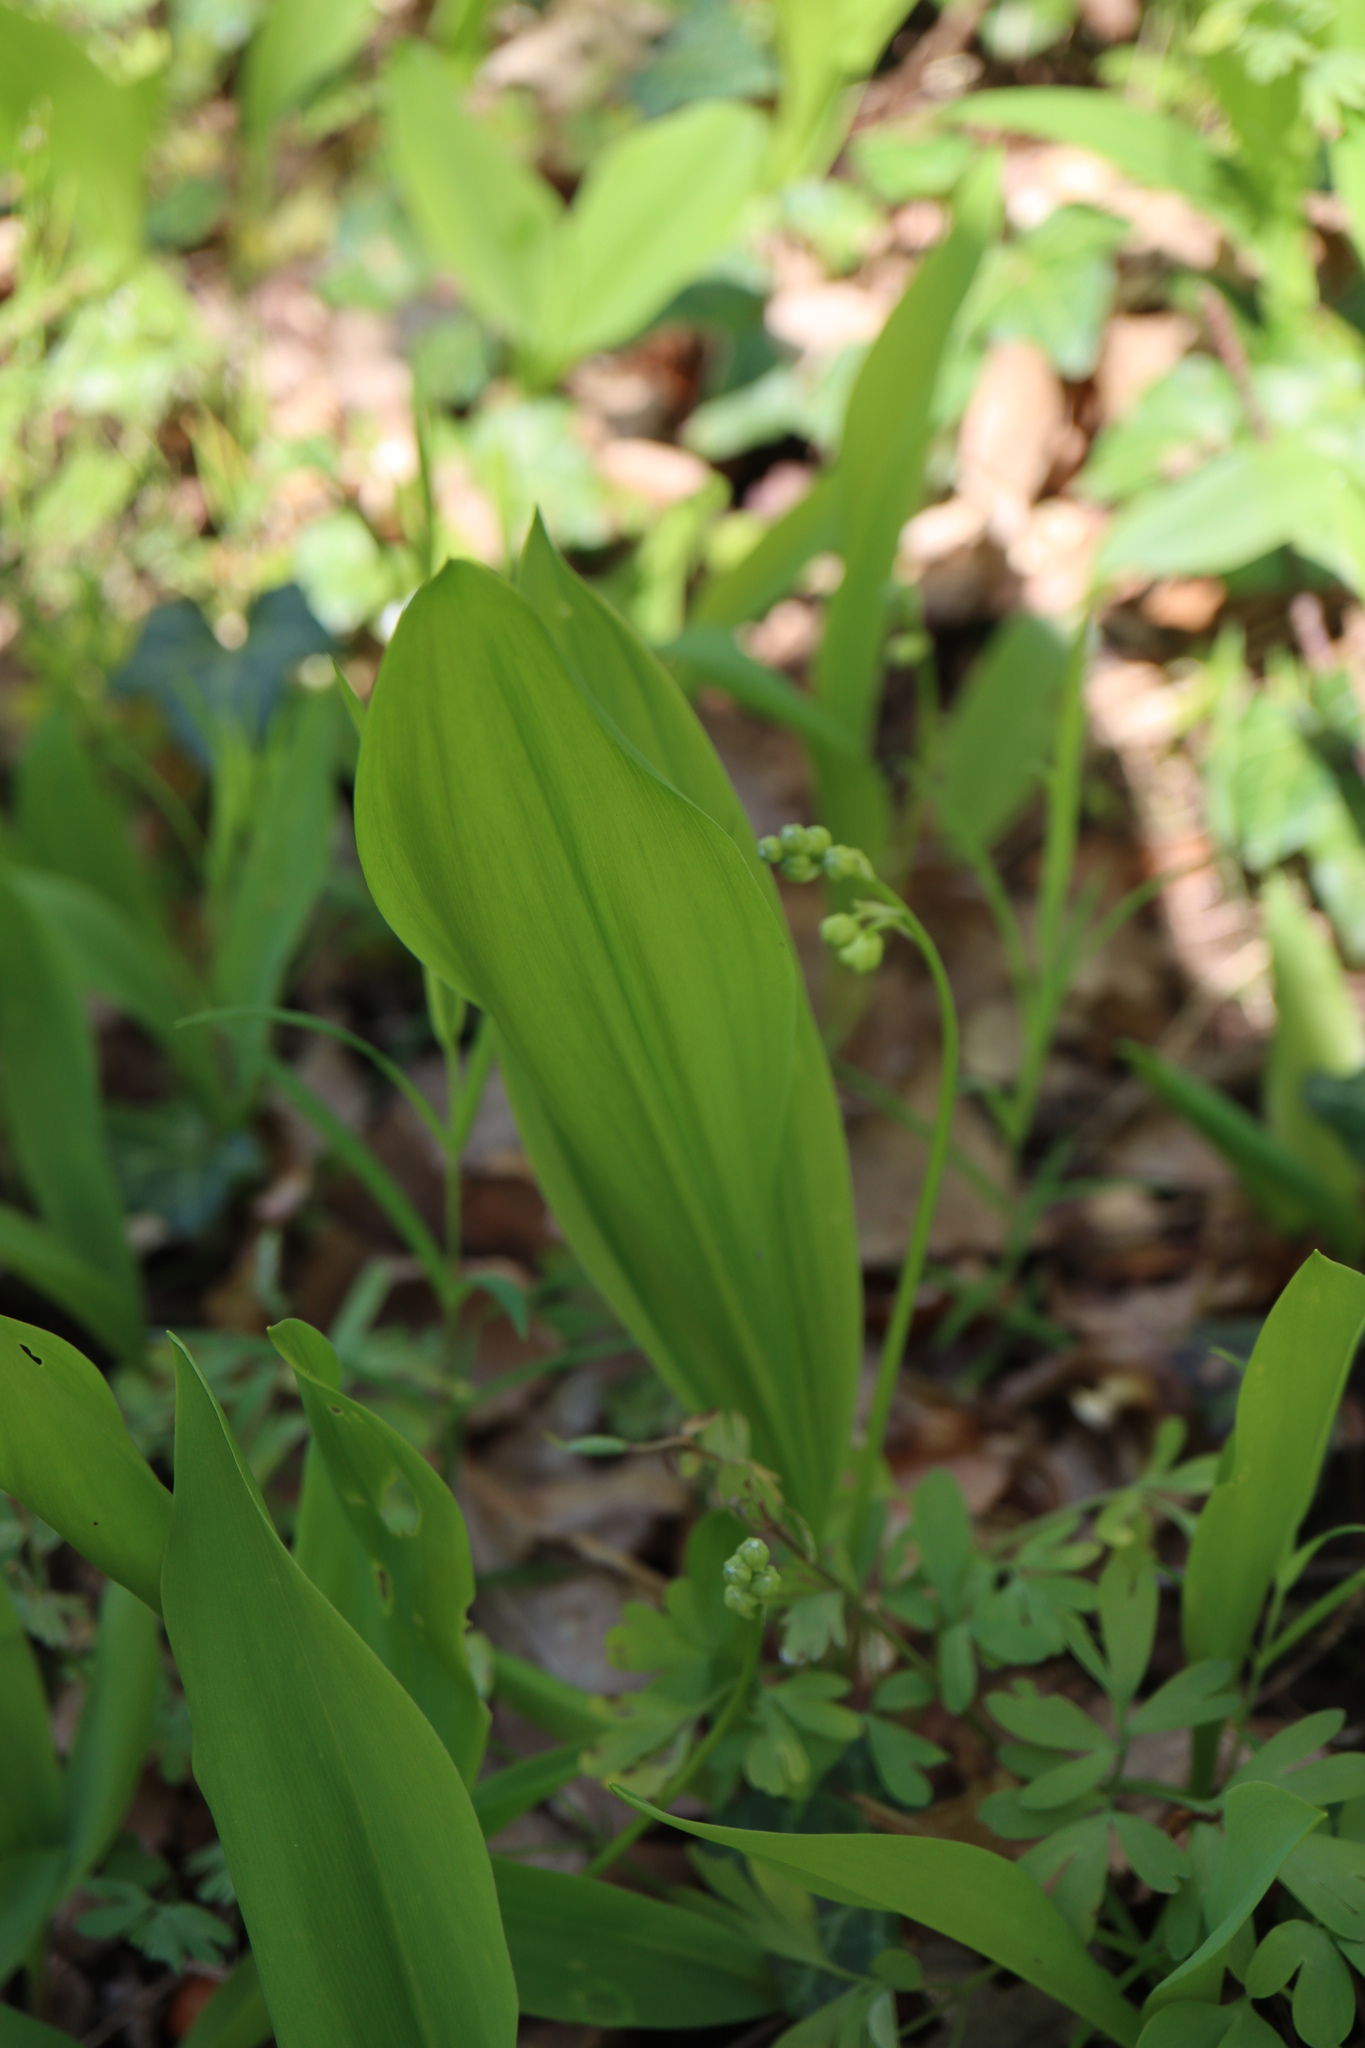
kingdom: Plantae
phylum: Tracheophyta
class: Liliopsida
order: Asparagales
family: Asparagaceae
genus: Convallaria
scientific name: Convallaria majalis
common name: Lily-of-the-valley
